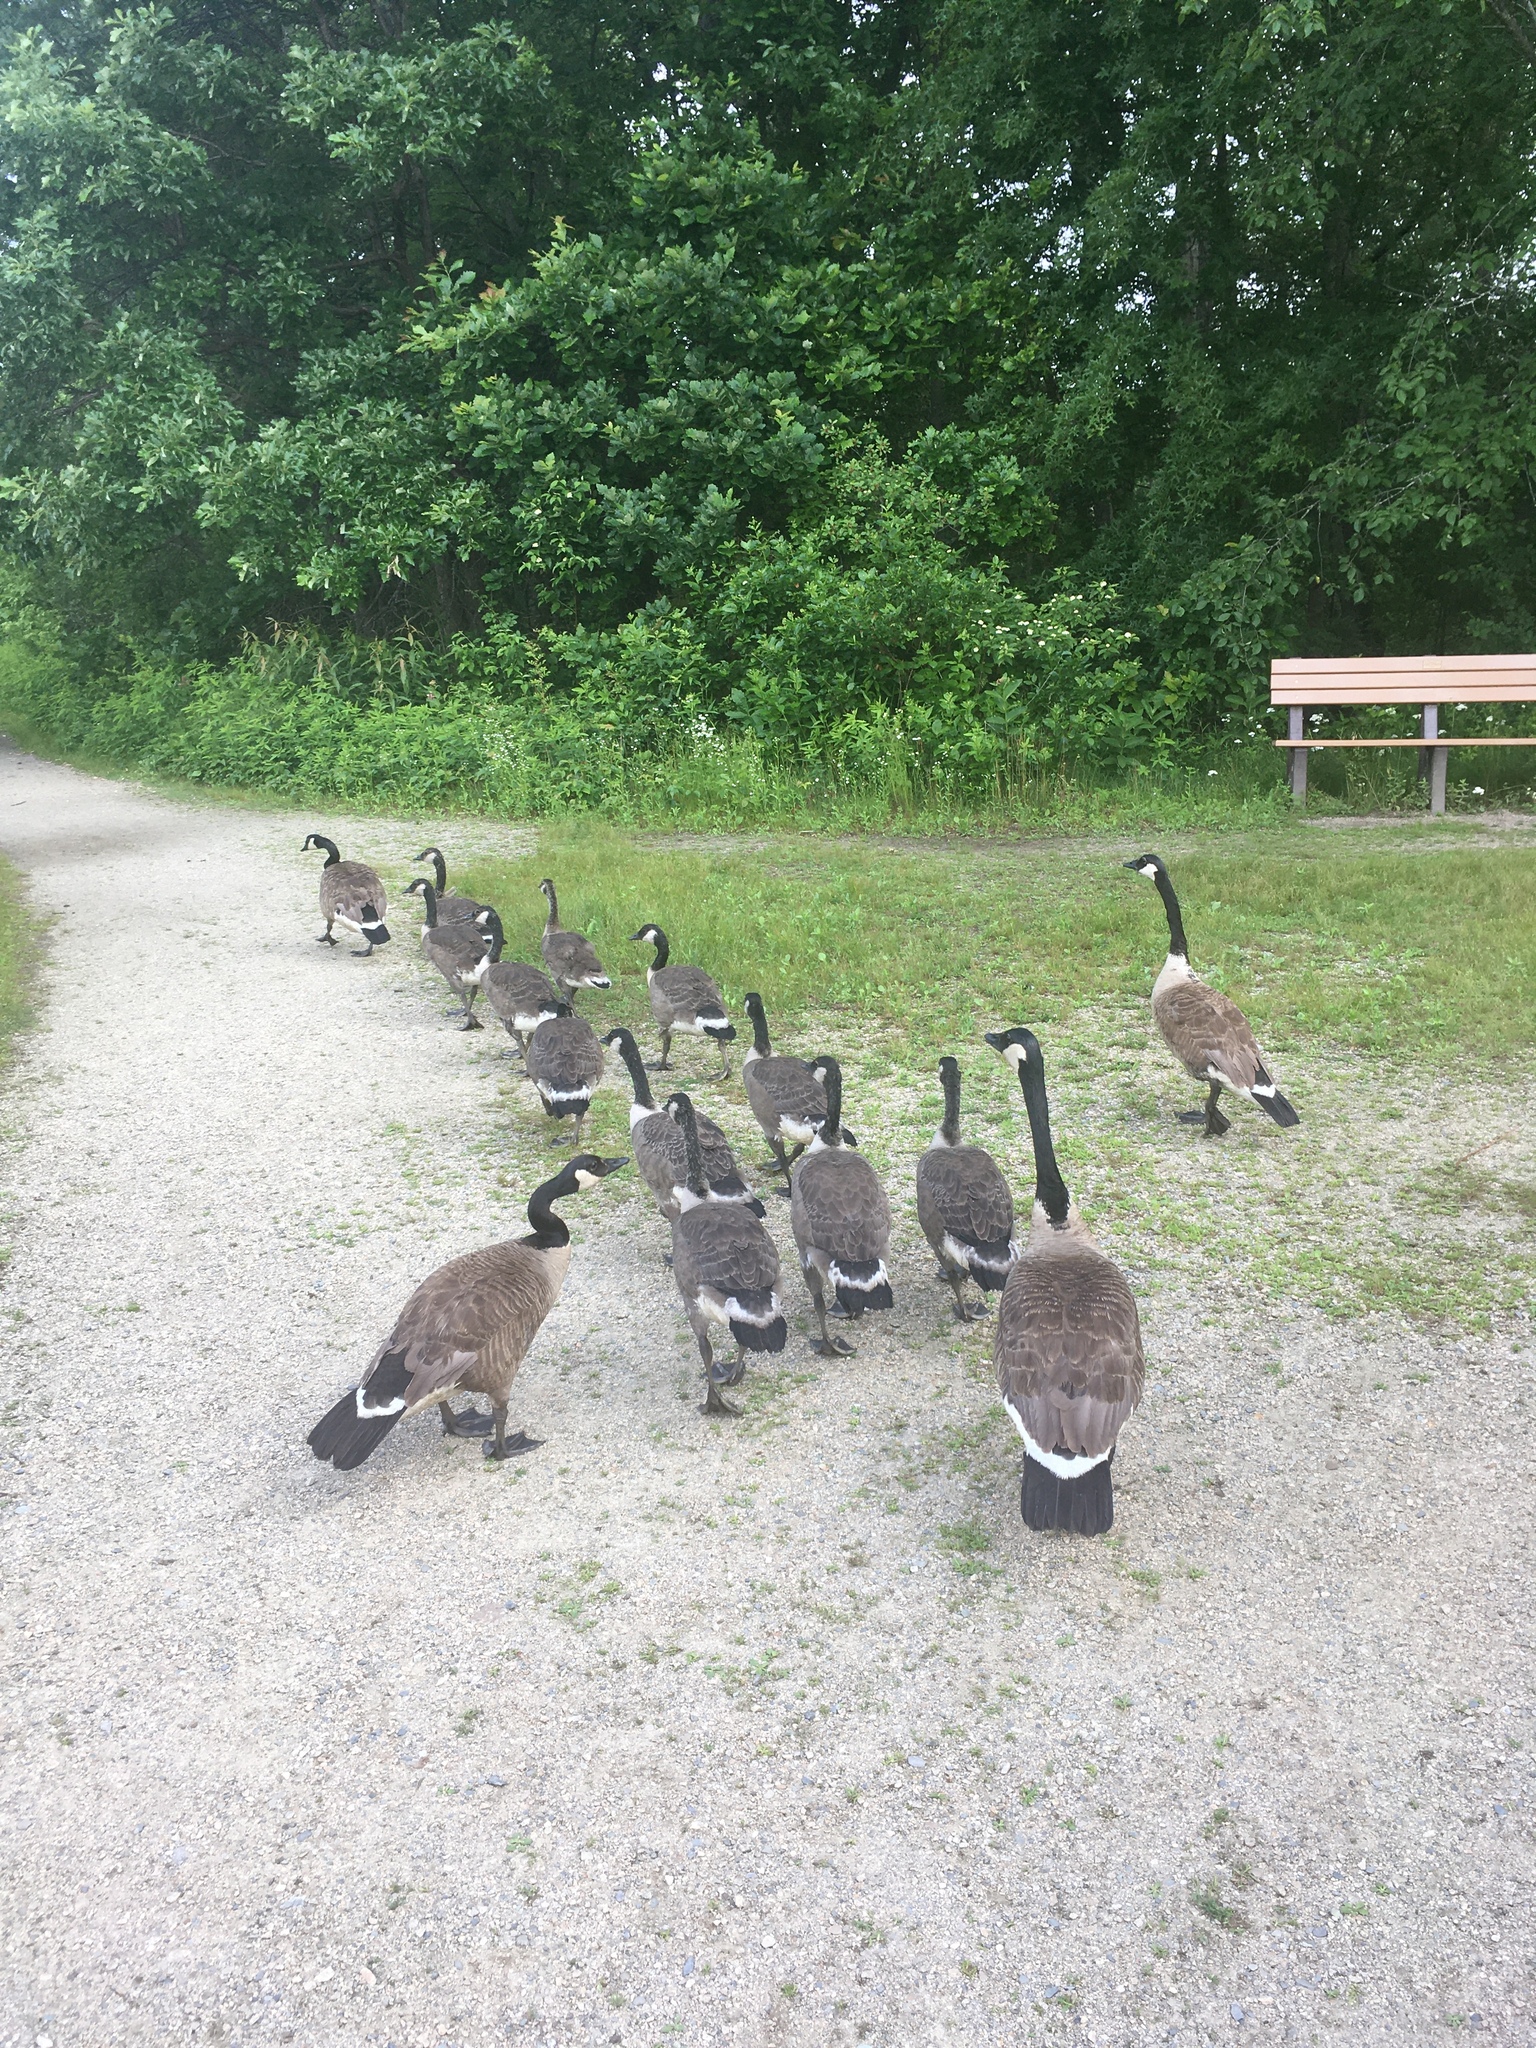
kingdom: Animalia
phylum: Chordata
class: Aves
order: Anseriformes
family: Anatidae
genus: Branta
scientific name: Branta canadensis
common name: Canada goose
